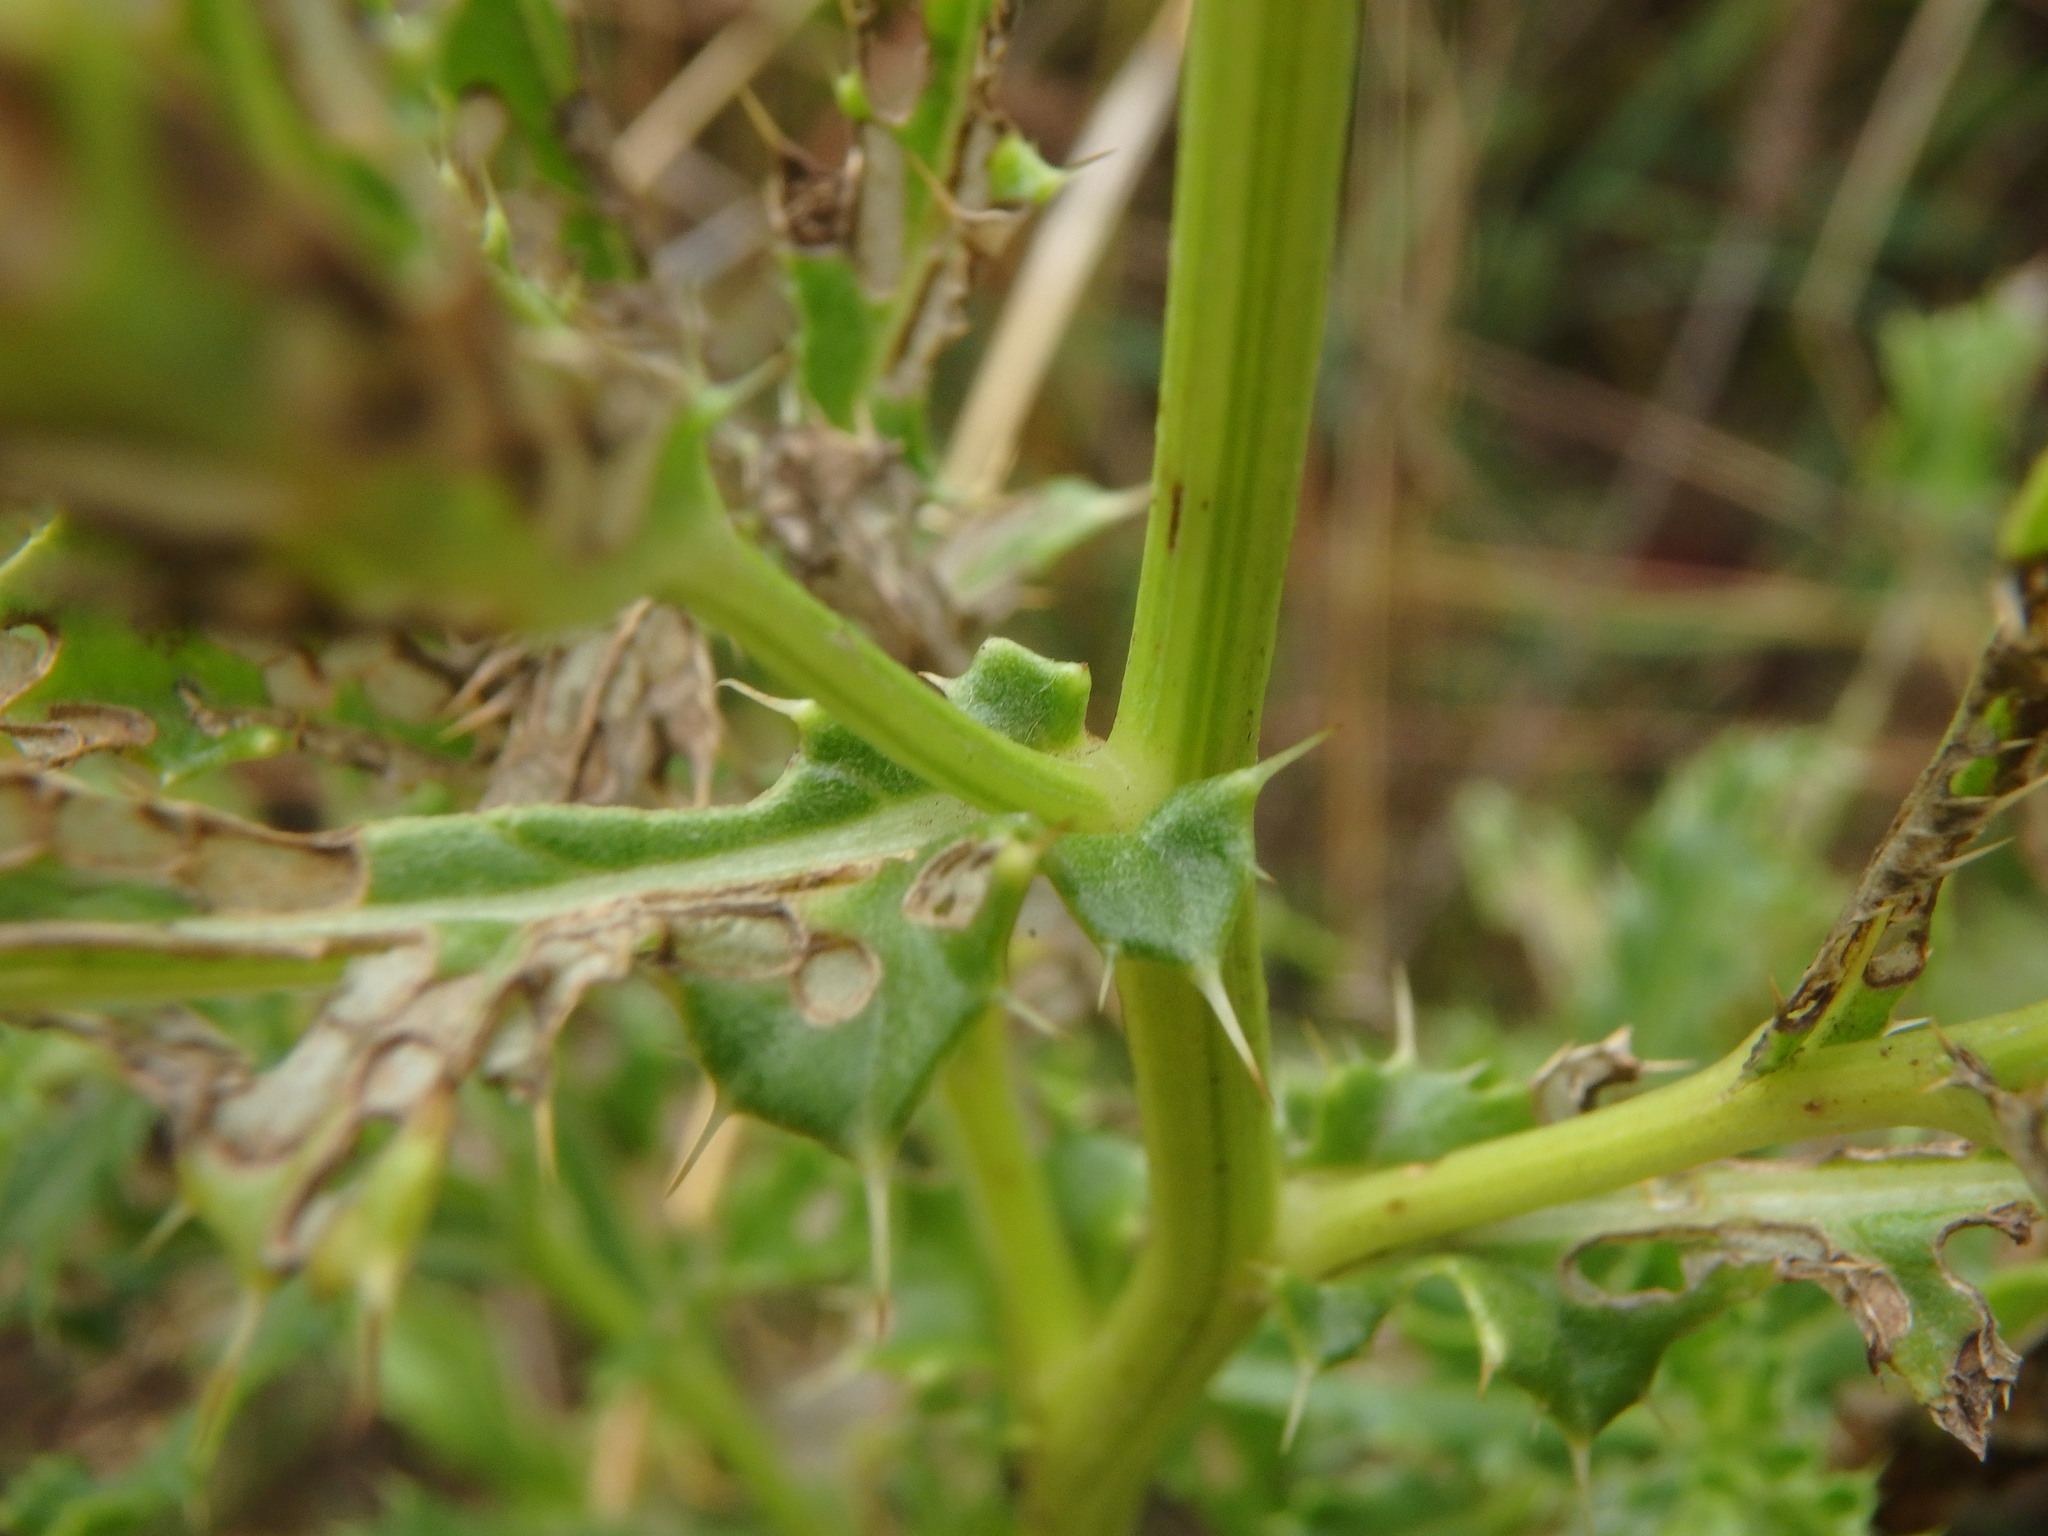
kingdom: Plantae
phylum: Tracheophyta
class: Magnoliopsida
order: Asterales
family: Asteraceae
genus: Cirsium
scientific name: Cirsium arvense
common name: Creeping thistle
